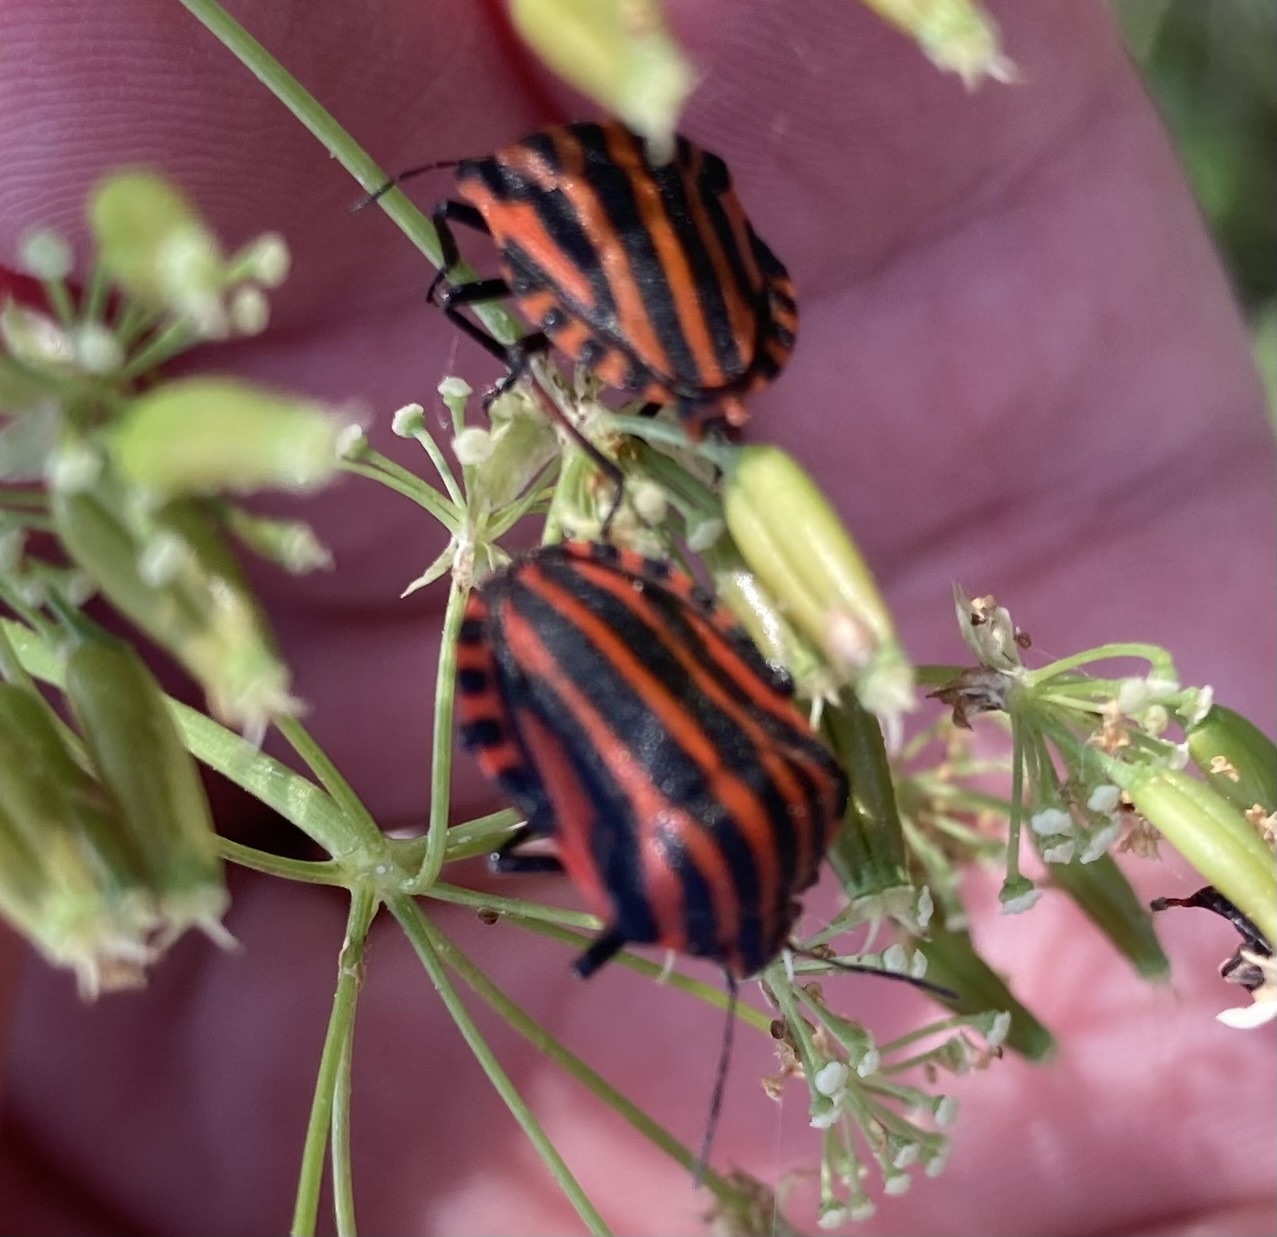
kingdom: Animalia
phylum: Arthropoda
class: Insecta
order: Hemiptera
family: Pentatomidae
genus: Graphosoma
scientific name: Graphosoma italicum
